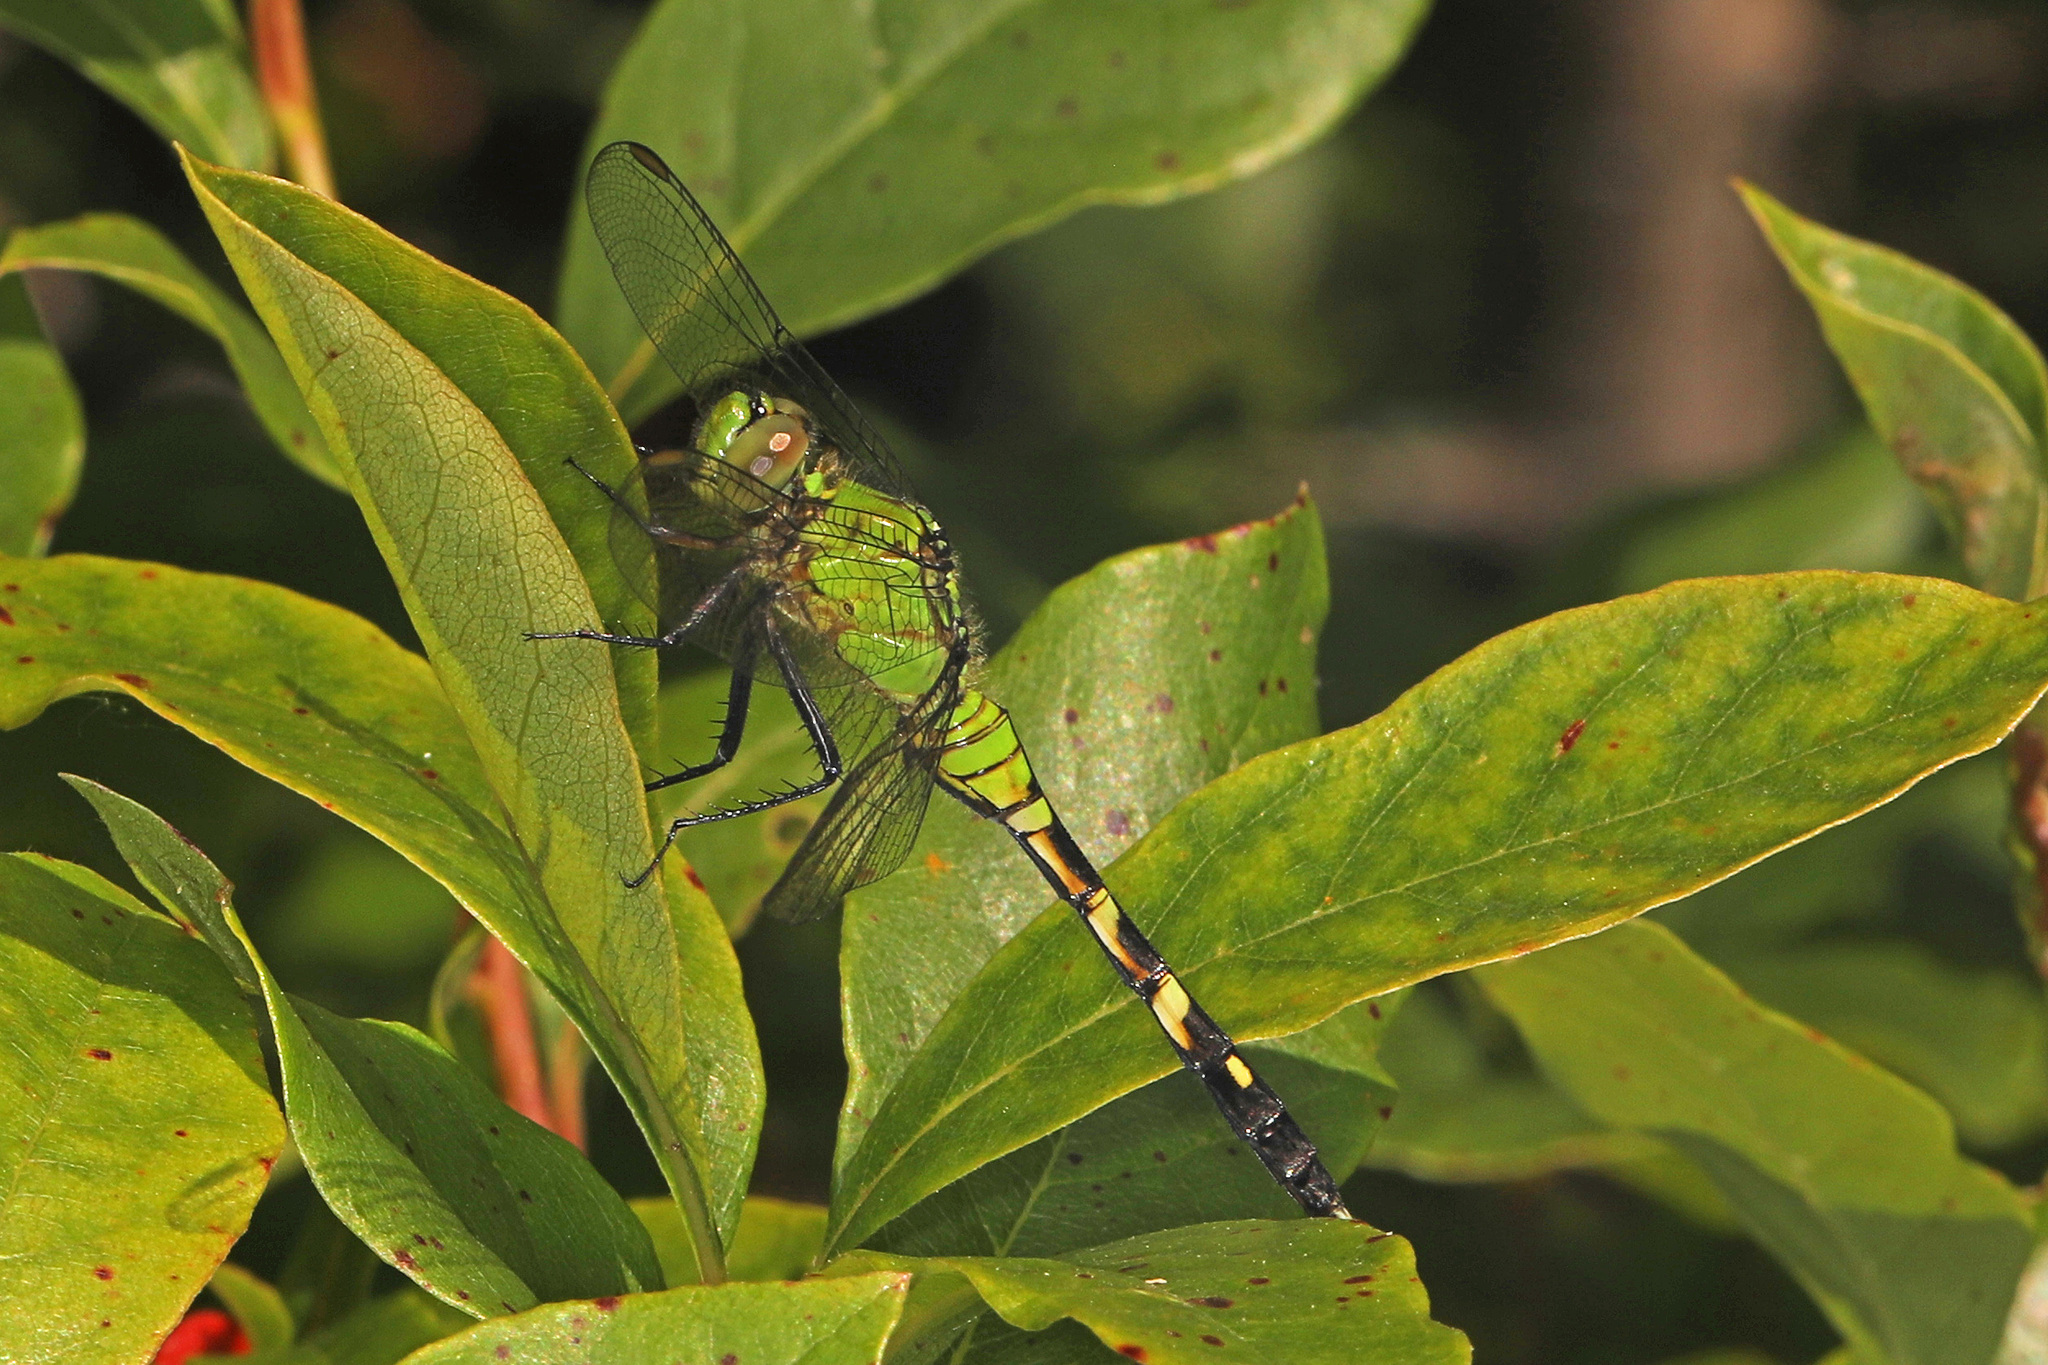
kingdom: Animalia
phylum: Arthropoda
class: Insecta
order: Odonata
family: Libellulidae
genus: Erythemis
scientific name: Erythemis simplicicollis
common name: Eastern pondhawk
